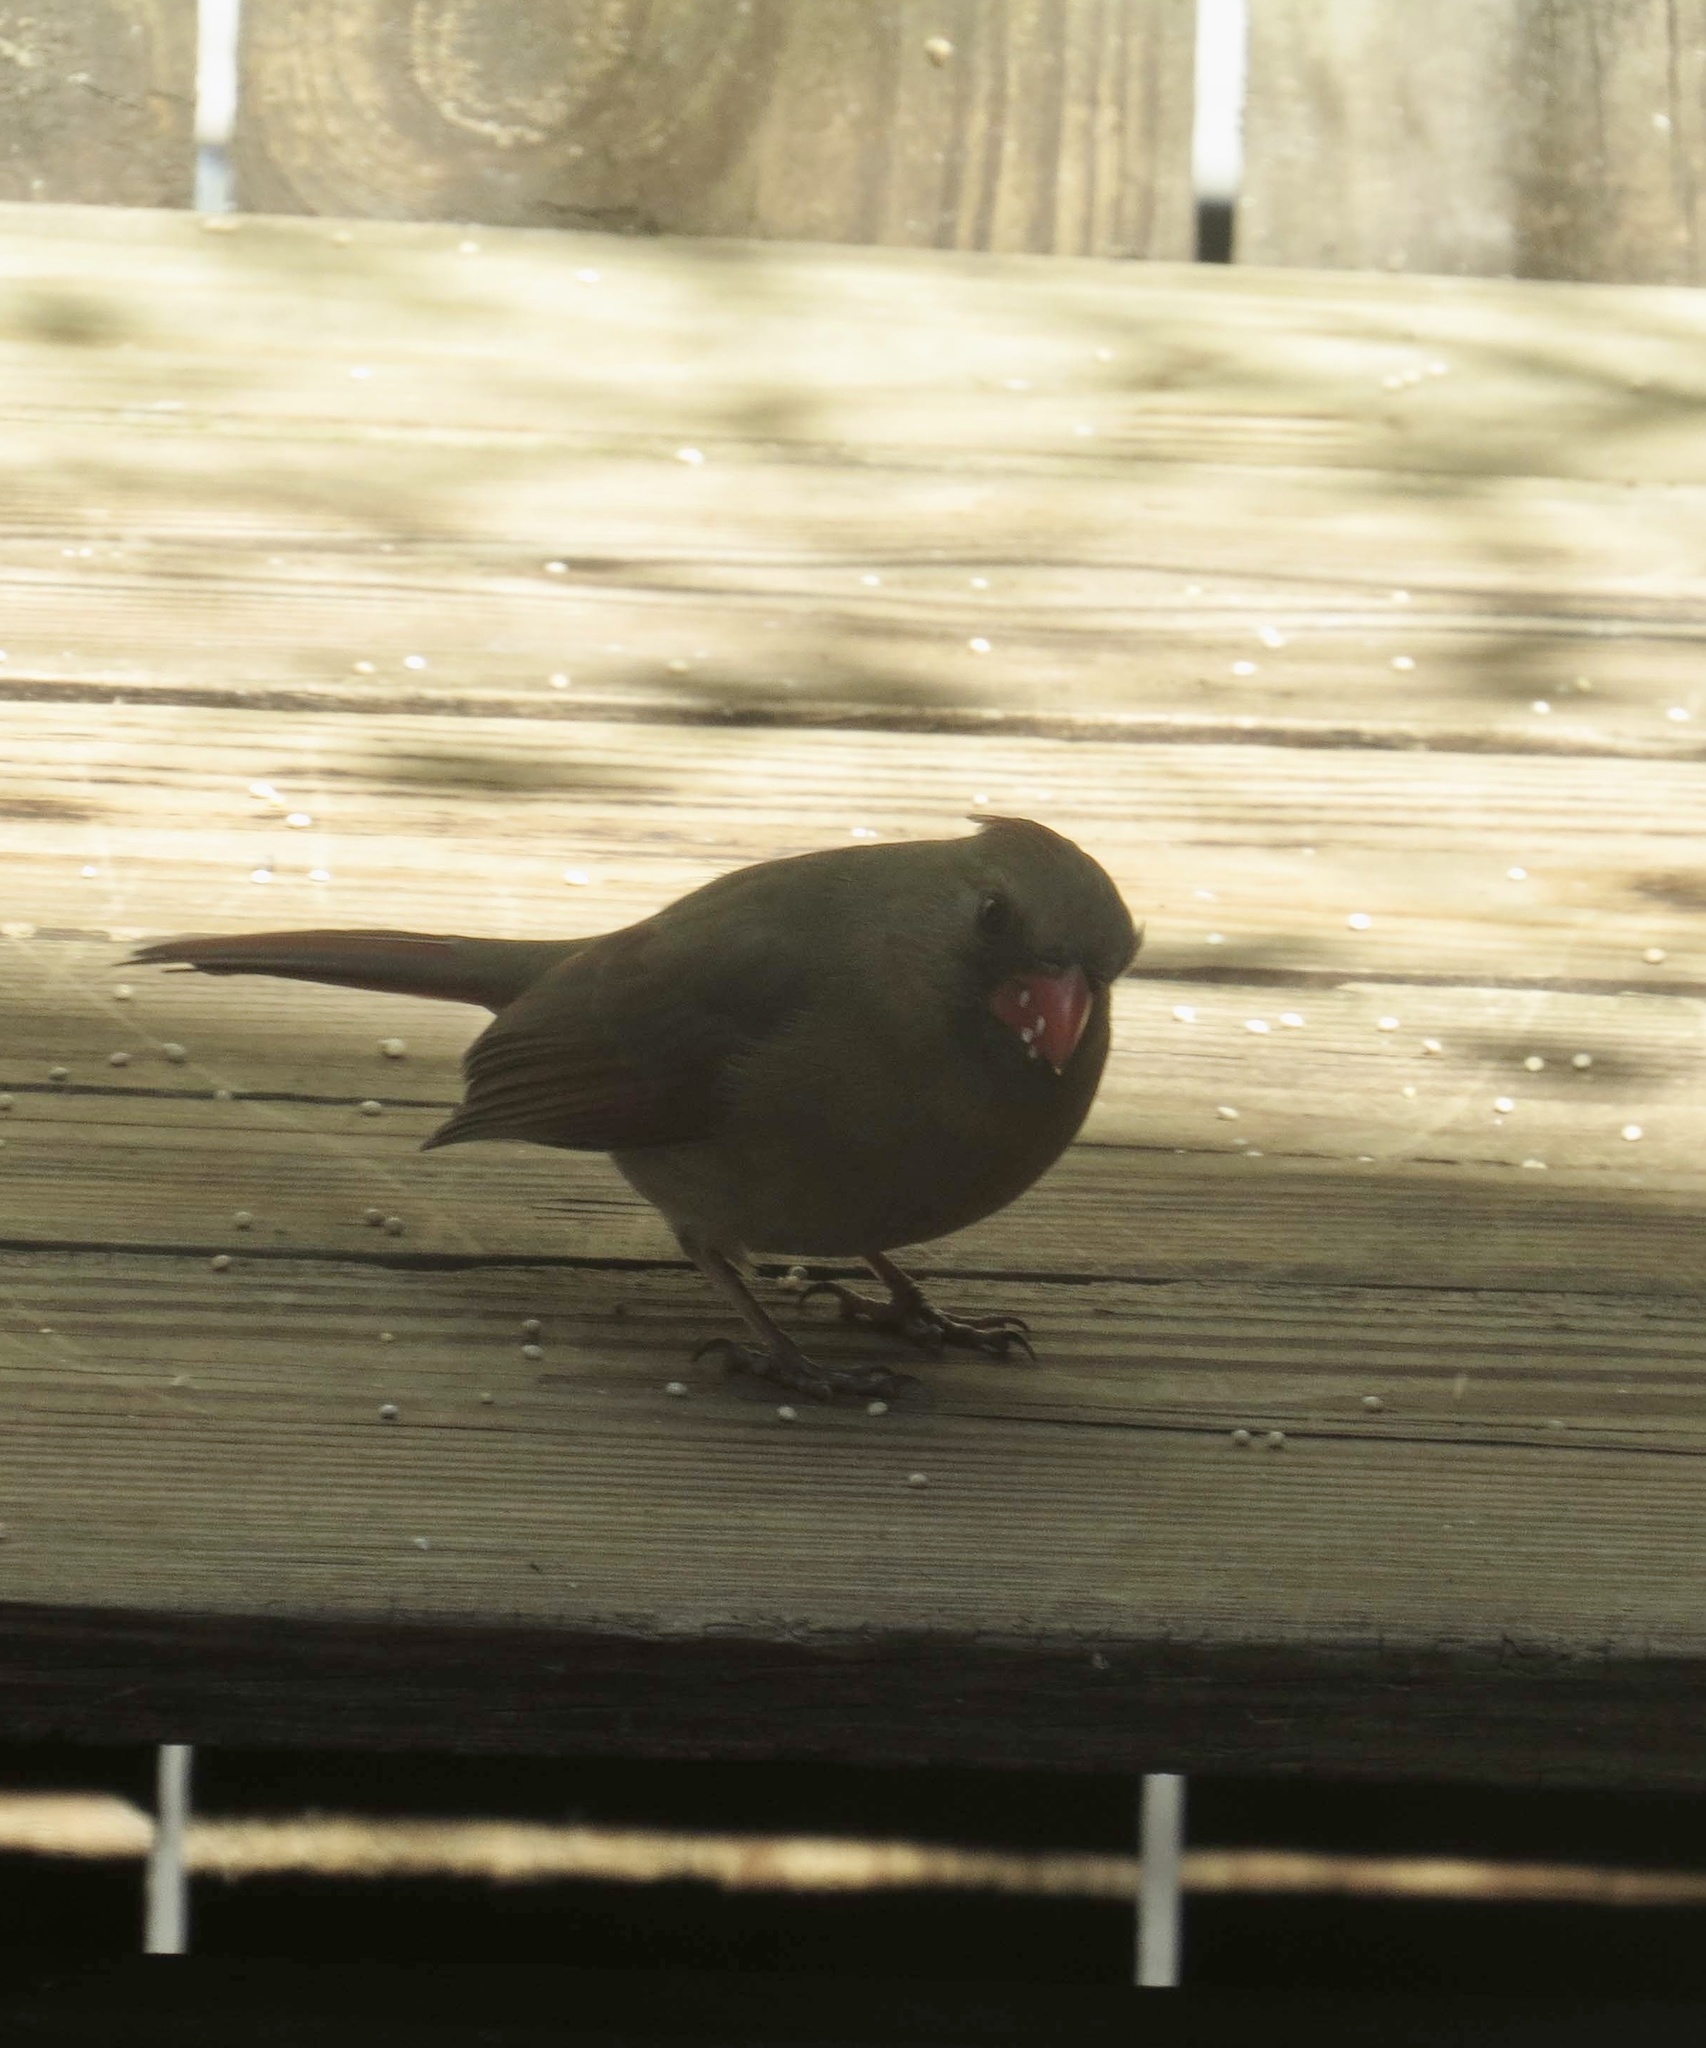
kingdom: Animalia
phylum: Chordata
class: Aves
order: Passeriformes
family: Cardinalidae
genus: Cardinalis
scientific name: Cardinalis cardinalis
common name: Northern cardinal
